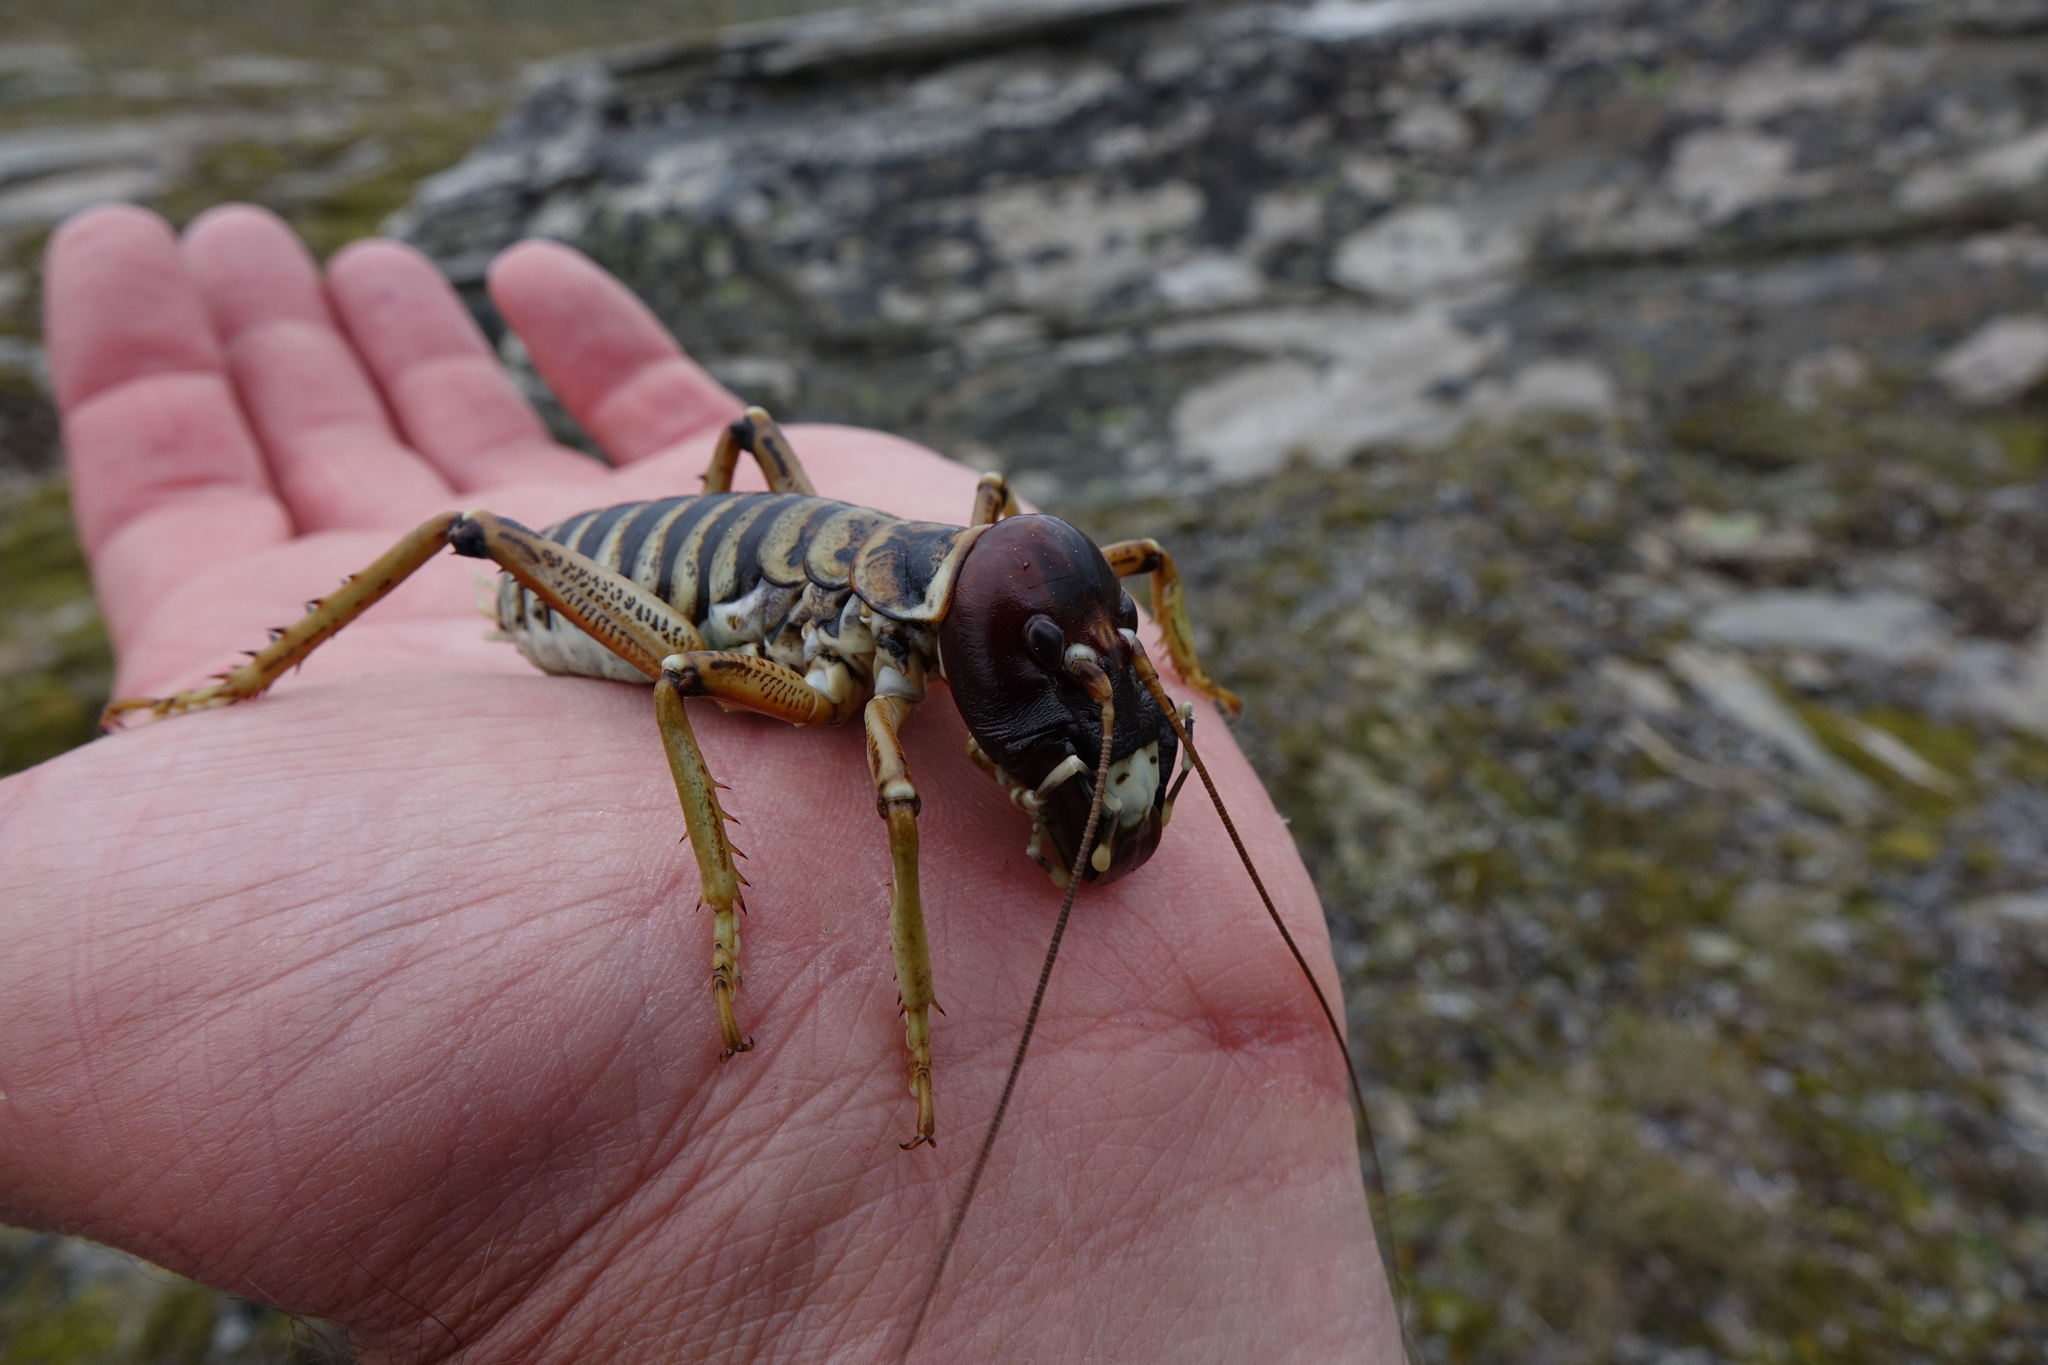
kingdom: Animalia
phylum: Arthropoda
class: Insecta
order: Orthoptera
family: Anostostomatidae
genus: Hemideina
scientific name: Hemideina maori
